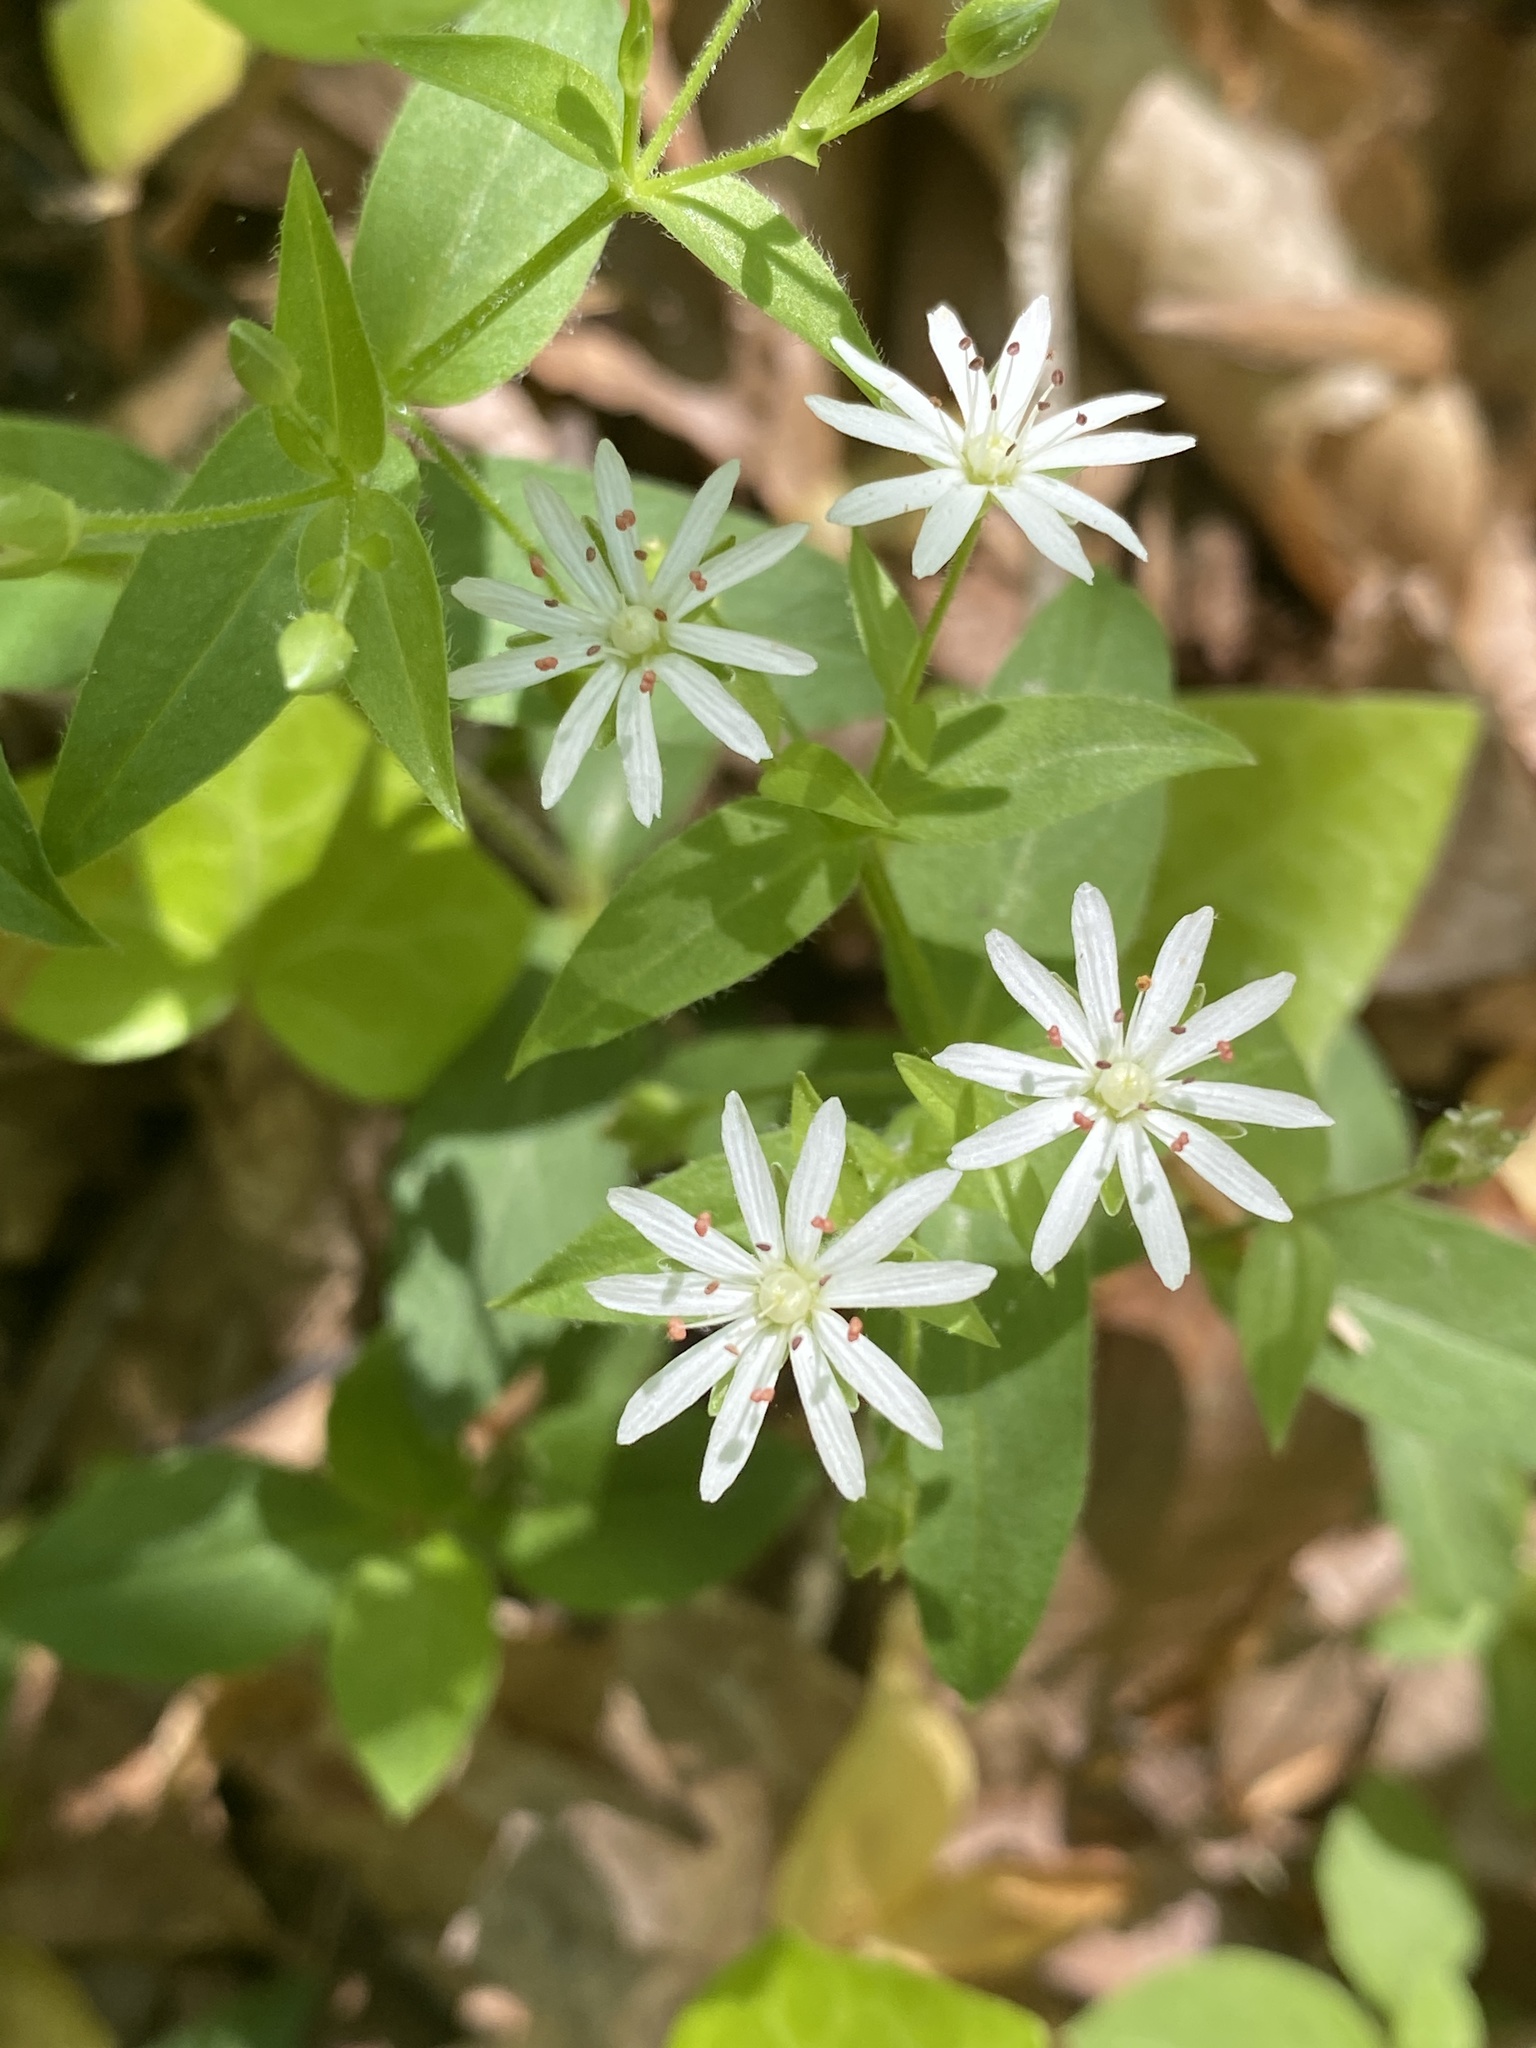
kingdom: Plantae
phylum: Tracheophyta
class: Magnoliopsida
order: Caryophyllales
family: Caryophyllaceae
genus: Stellaria
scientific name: Stellaria pubera
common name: Star chickweed
